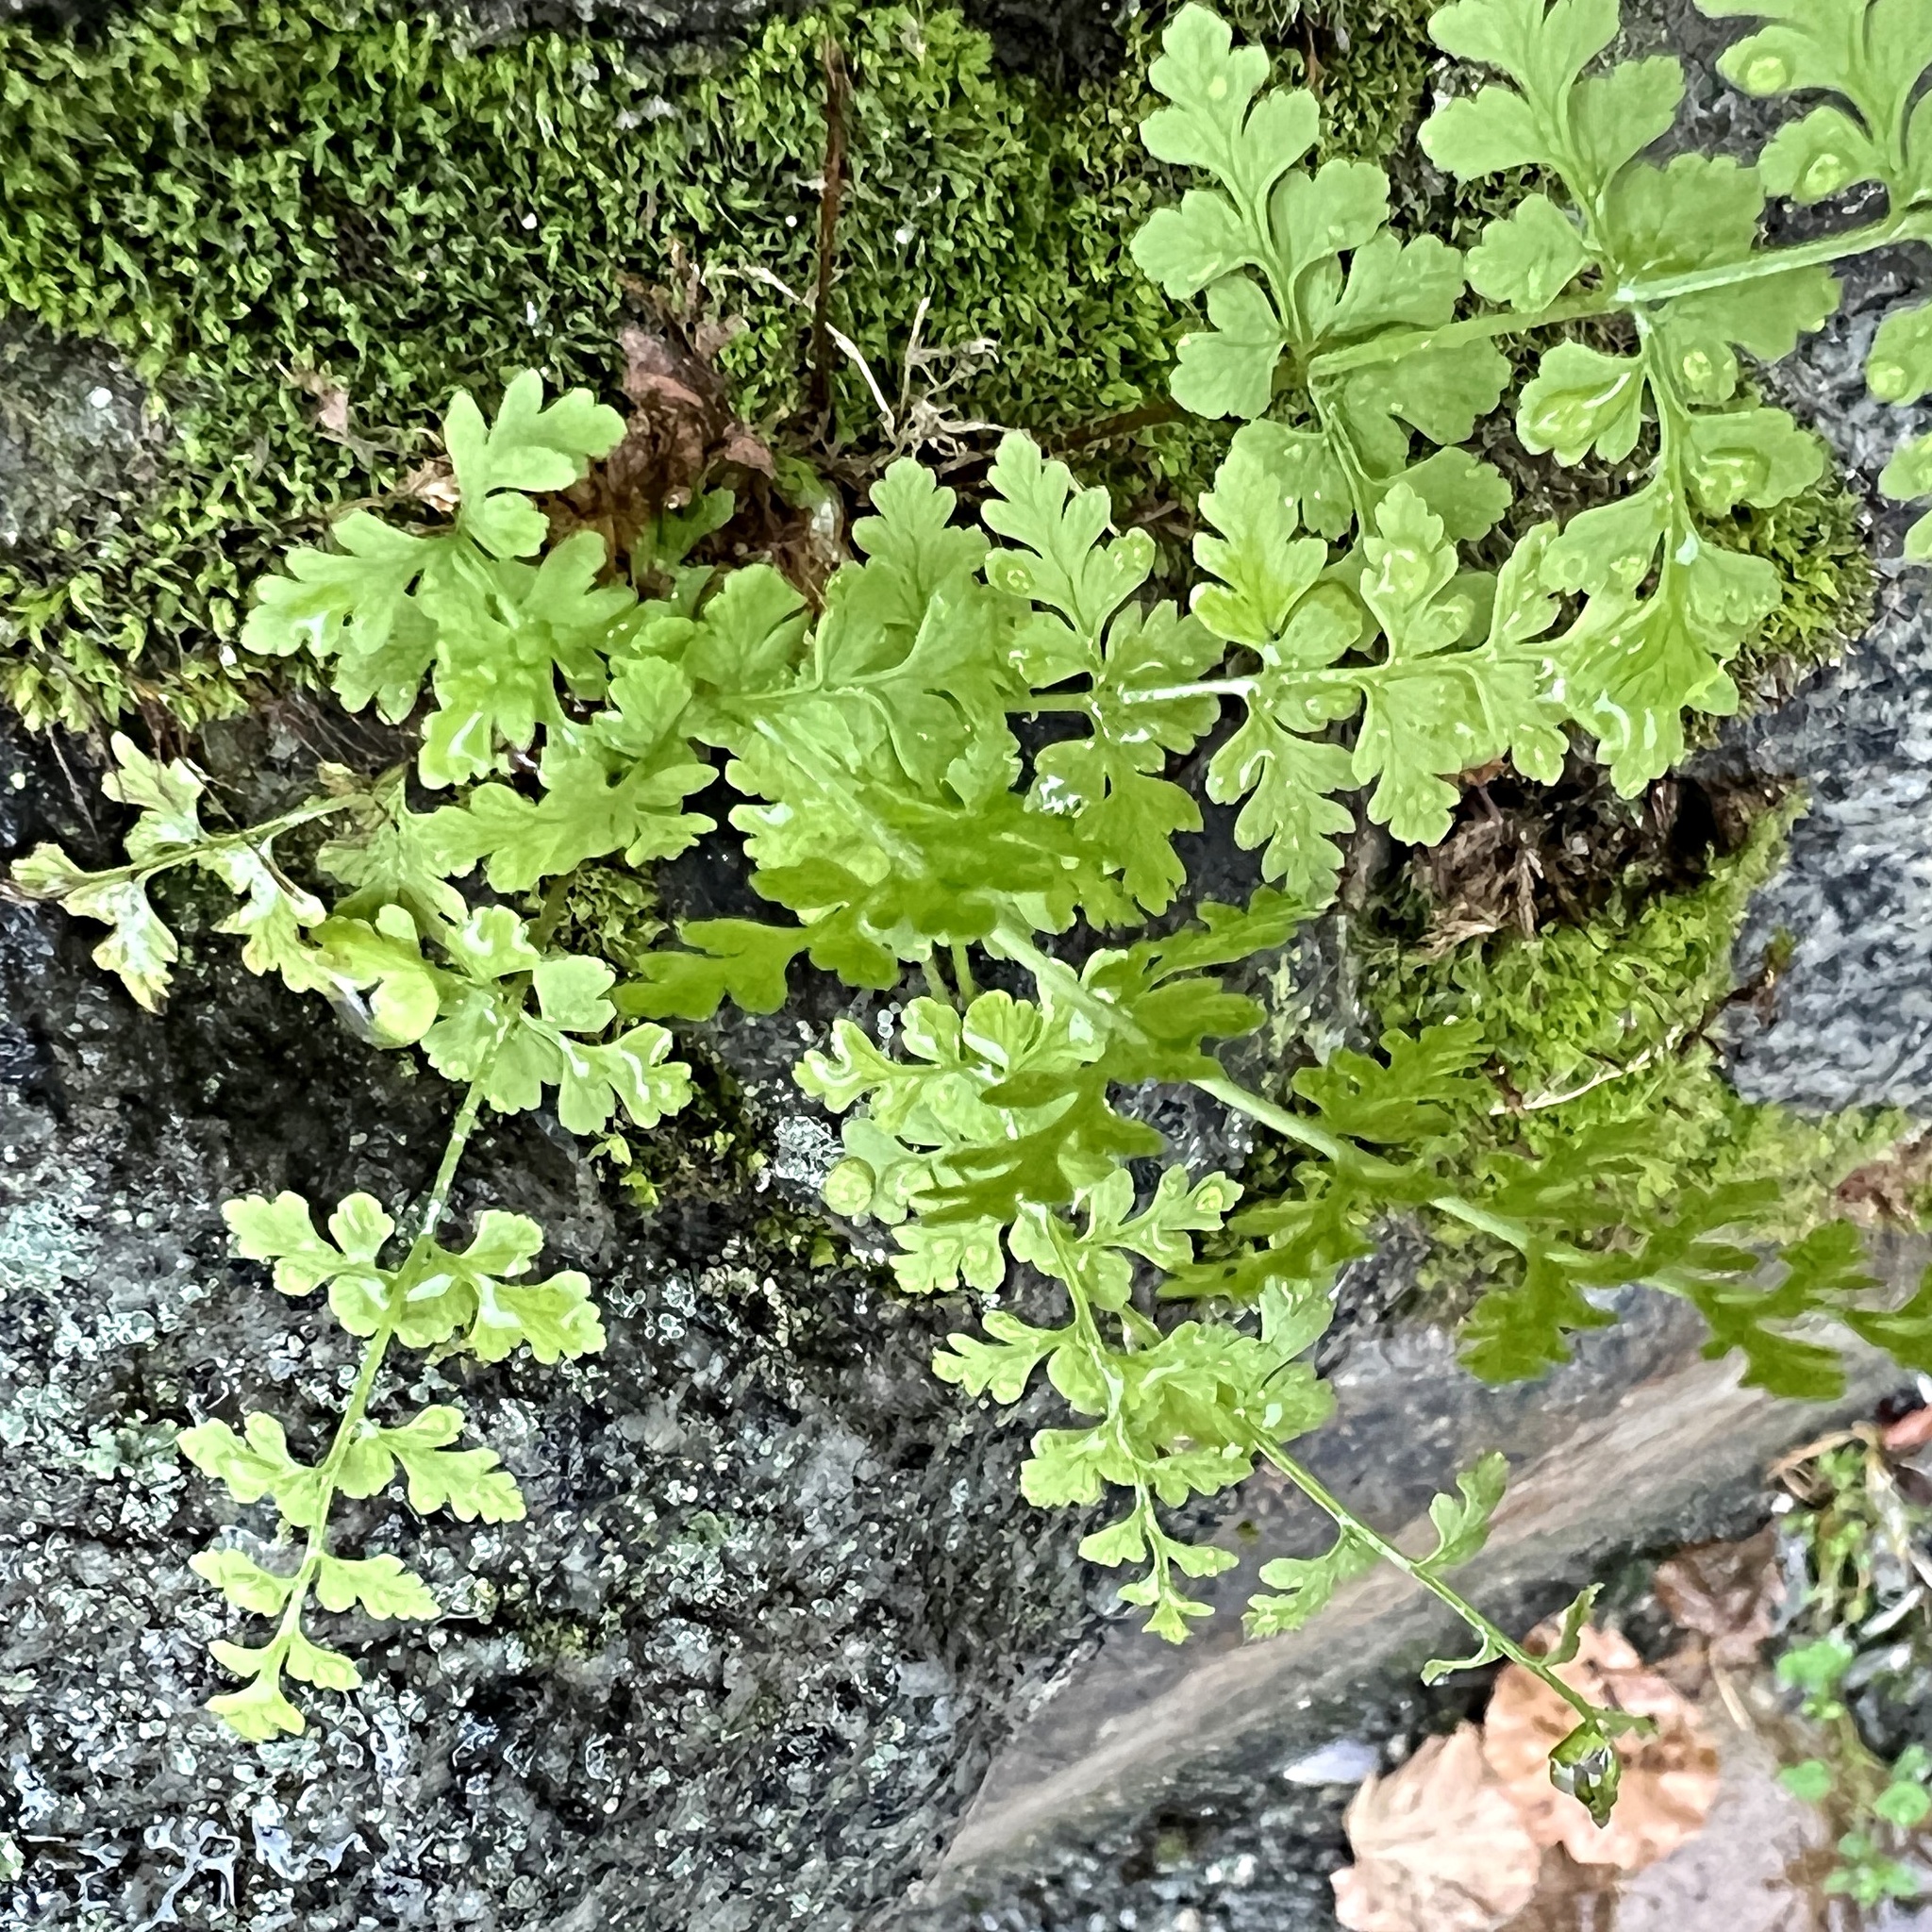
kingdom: Plantae
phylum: Tracheophyta
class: Polypodiopsida
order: Polypodiales
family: Cystopteridaceae
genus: Cystopteris
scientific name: Cystopteris fragilis
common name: Brittle bladder fern
